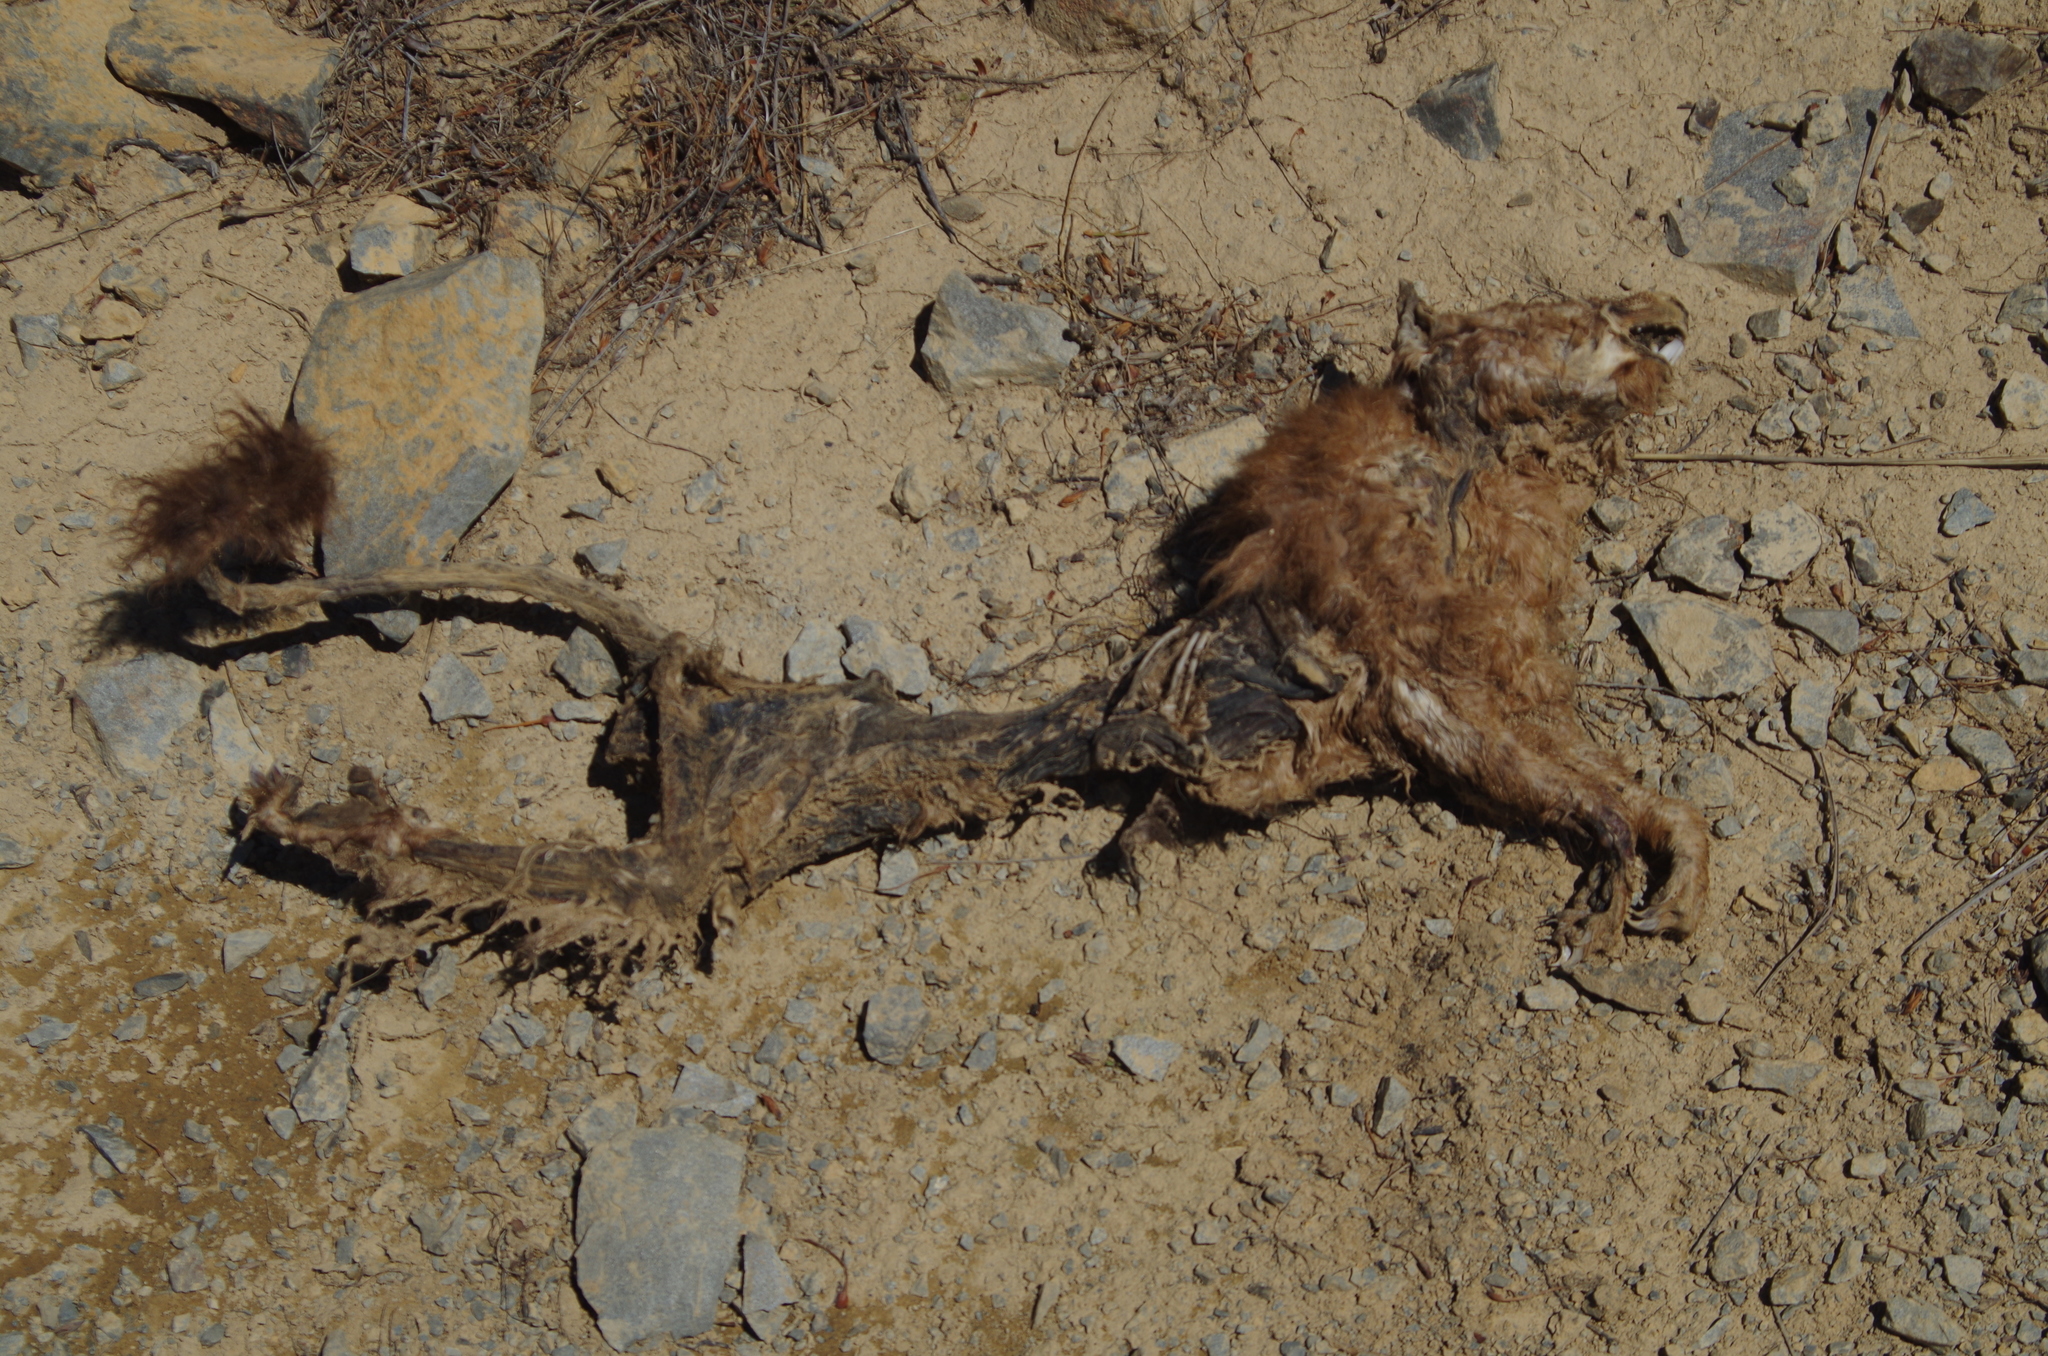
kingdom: Animalia
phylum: Chordata
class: Mammalia
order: Diprotodontia
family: Phalangeridae
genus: Trichosurus
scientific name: Trichosurus vulpecula
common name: Common brushtail
